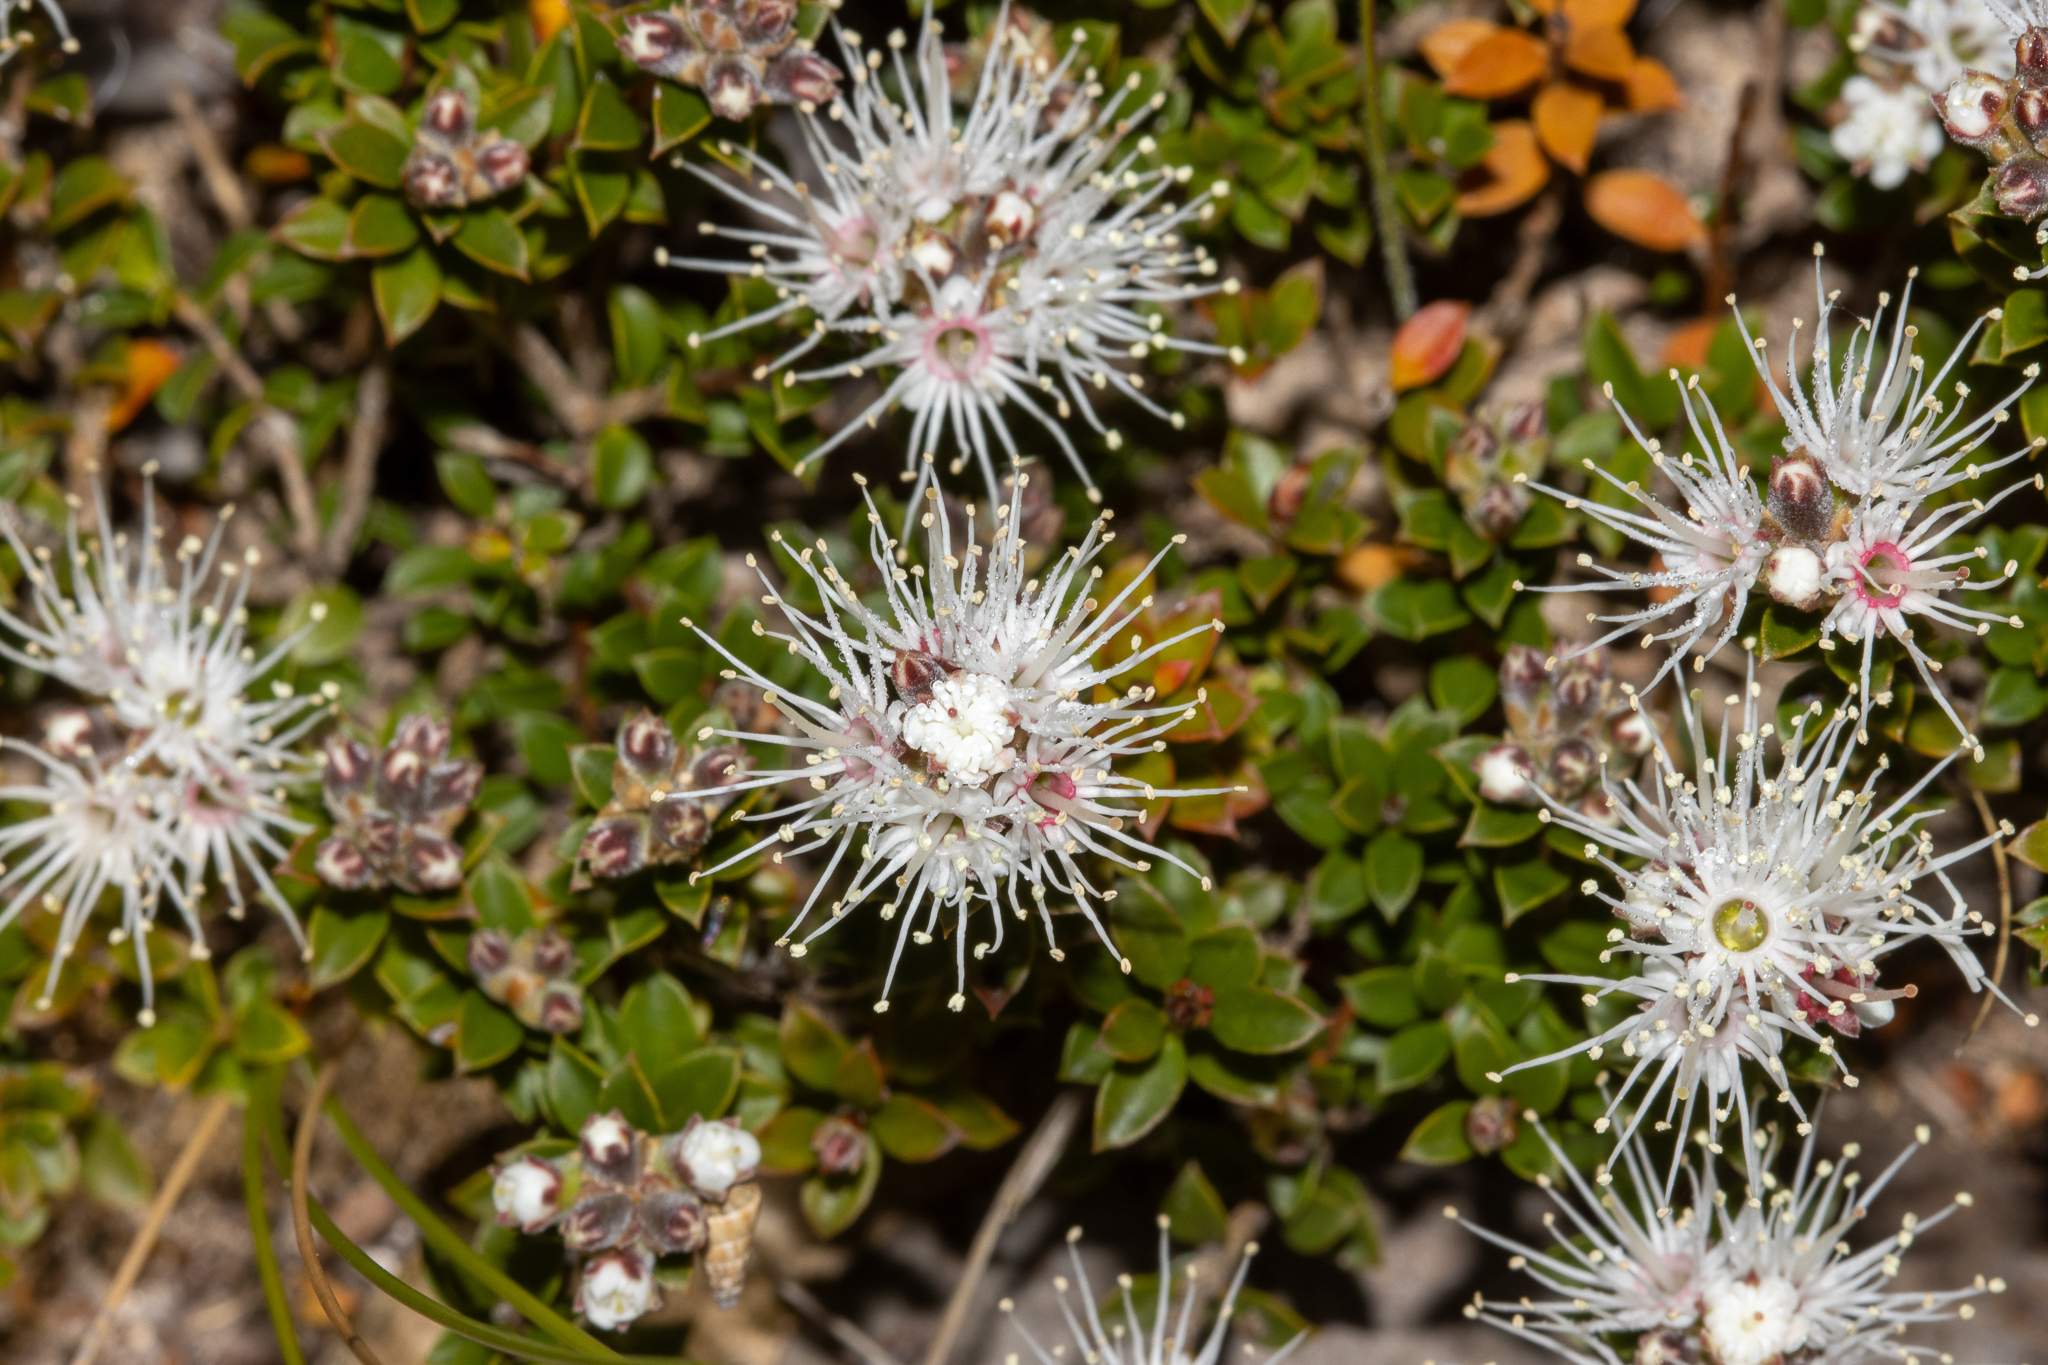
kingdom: Plantae
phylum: Tracheophyta
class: Magnoliopsida
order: Myrtales
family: Myrtaceae
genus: Kunzea
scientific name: Kunzea pomifera
